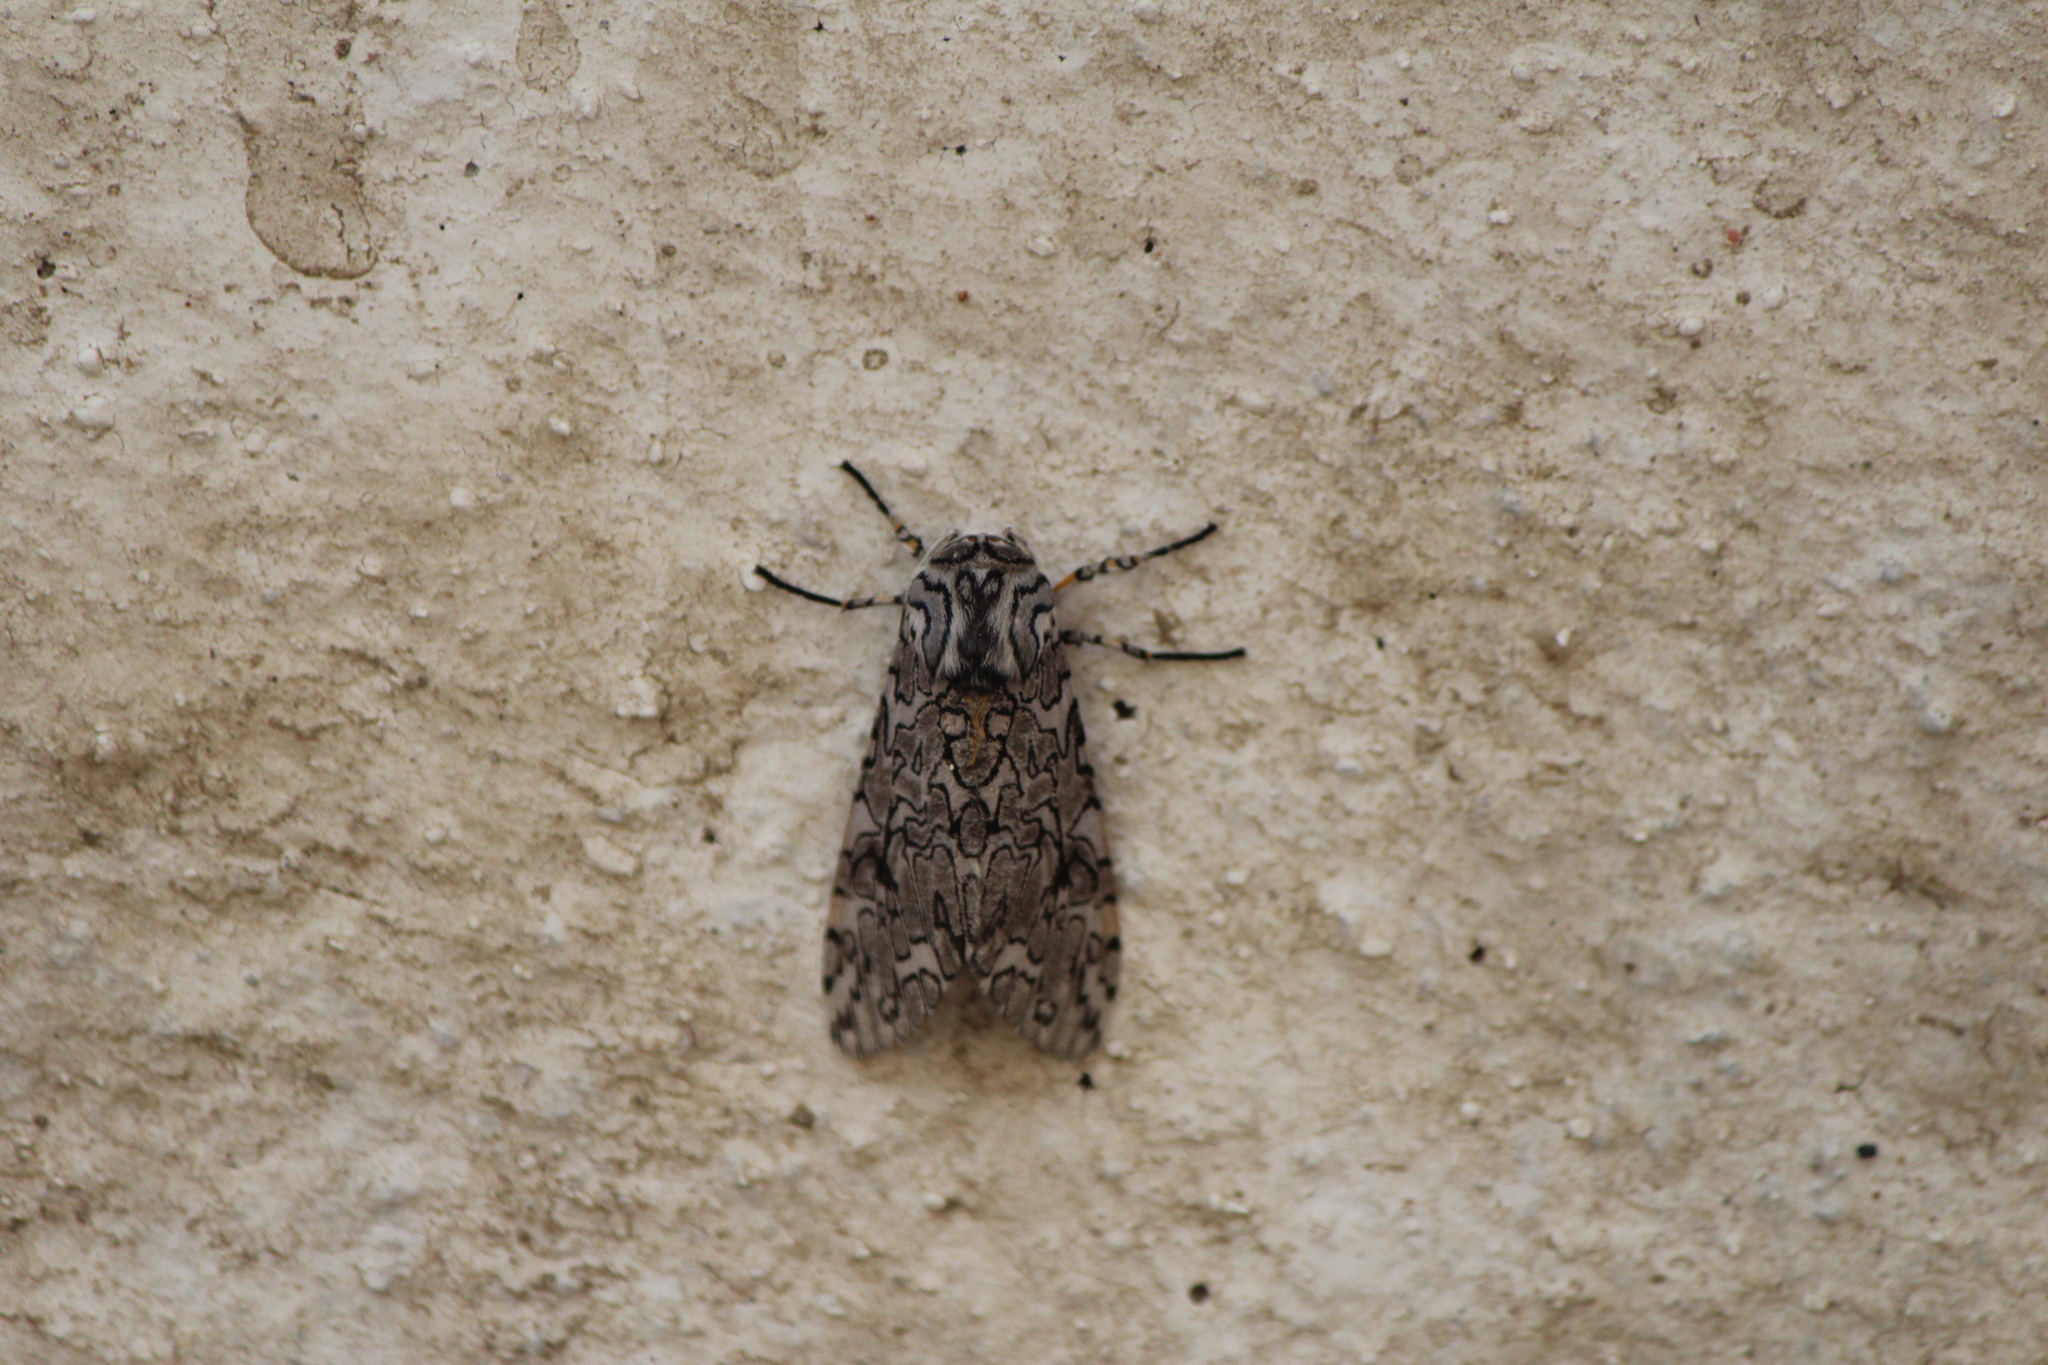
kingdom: Animalia
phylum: Arthropoda
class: Insecta
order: Lepidoptera
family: Erebidae
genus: Hypercompe
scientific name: Hypercompe suffusa
